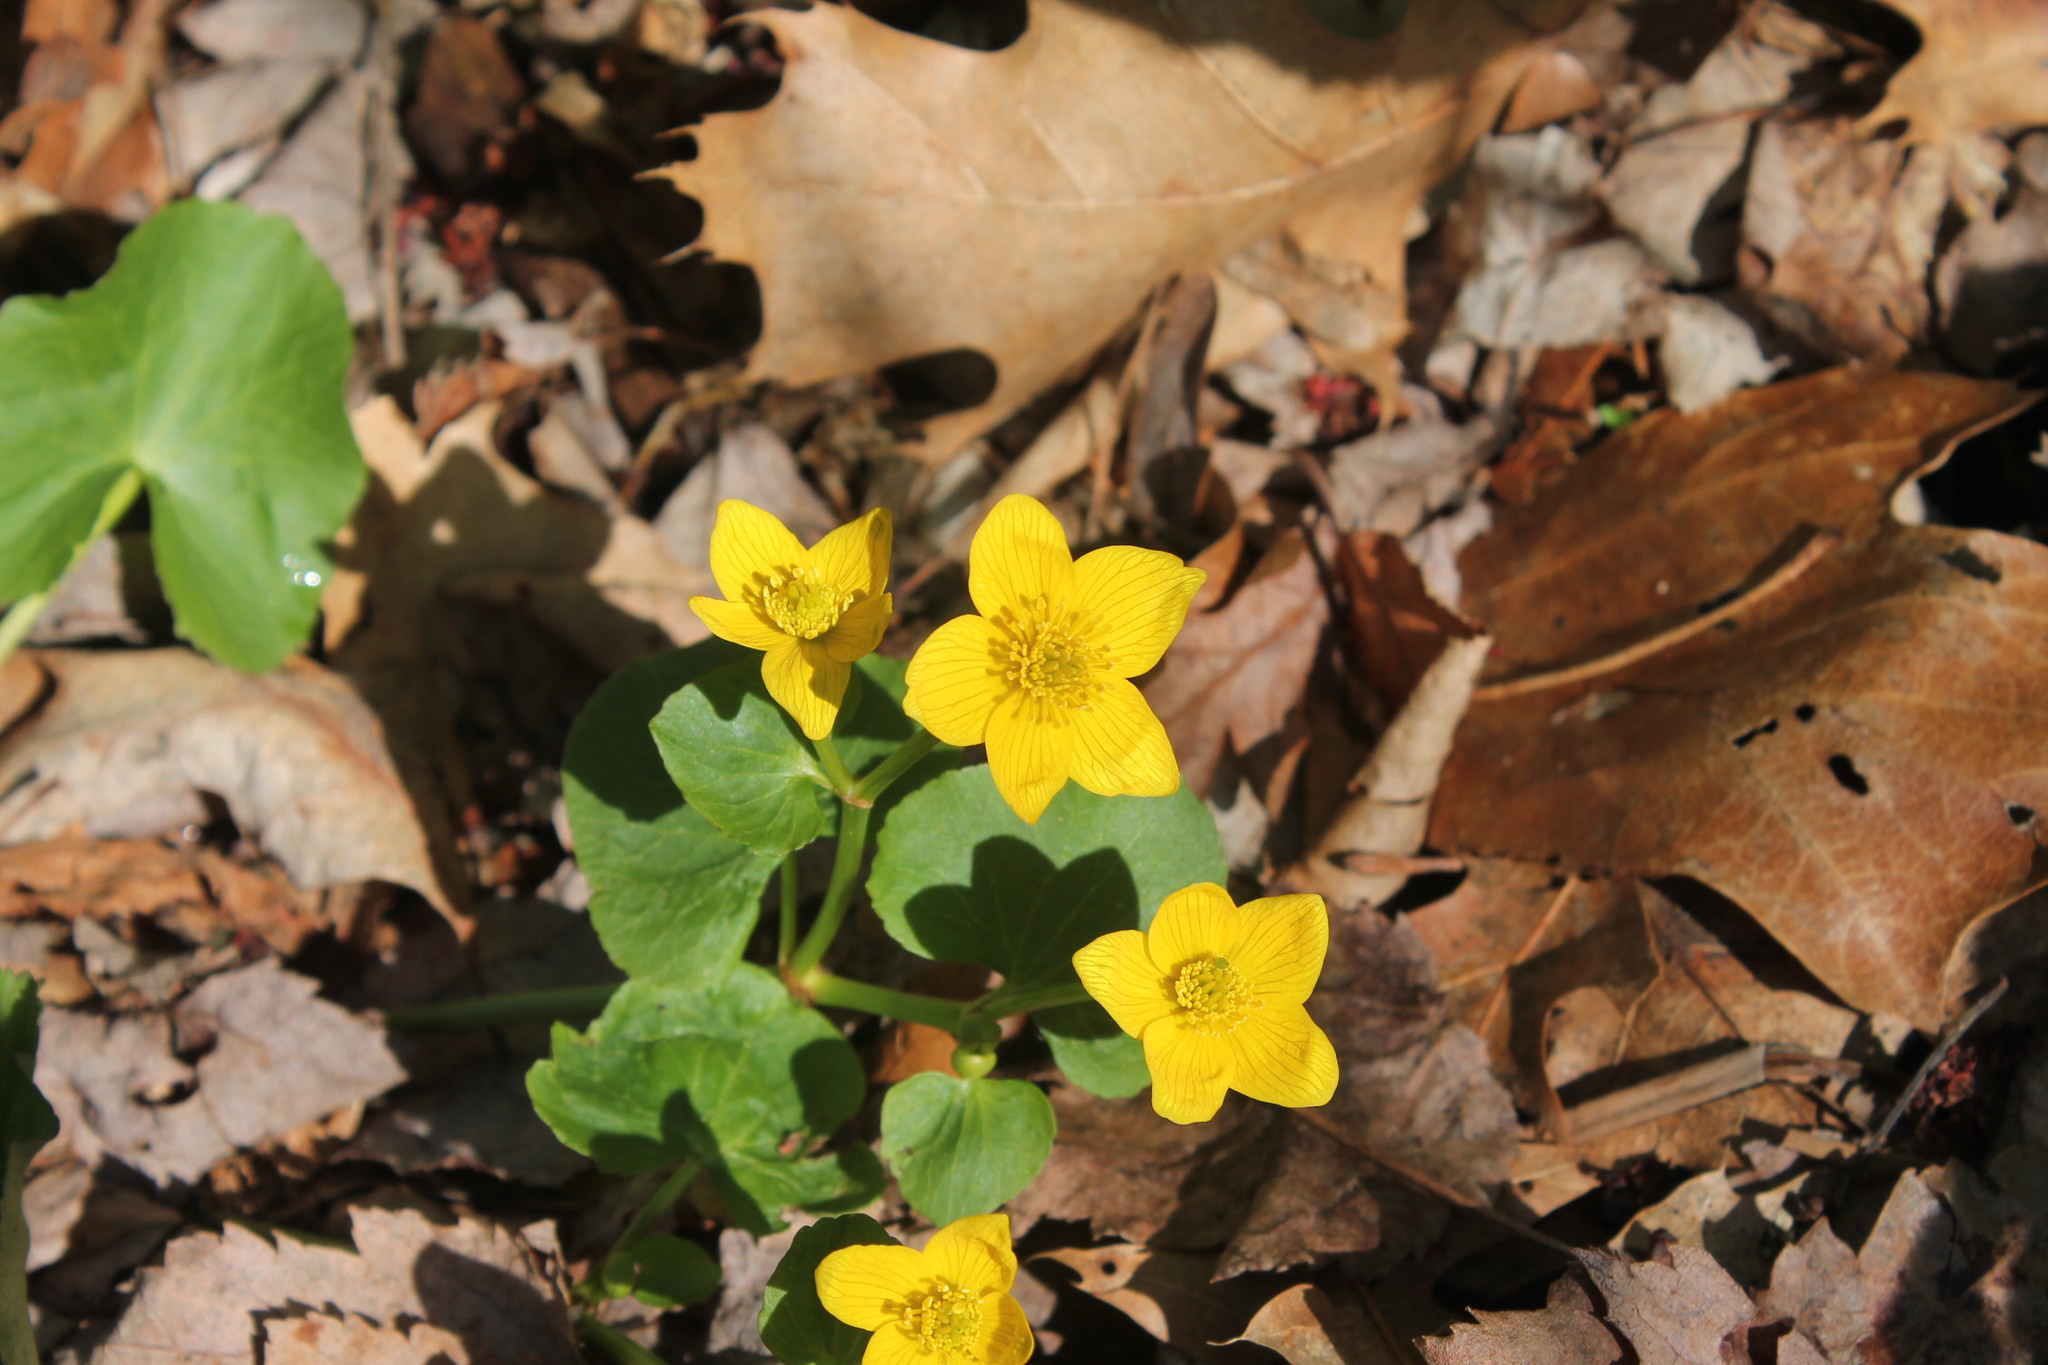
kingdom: Plantae
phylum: Tracheophyta
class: Magnoliopsida
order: Ranunculales
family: Ranunculaceae
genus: Caltha
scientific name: Caltha palustris
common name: Marsh marigold
